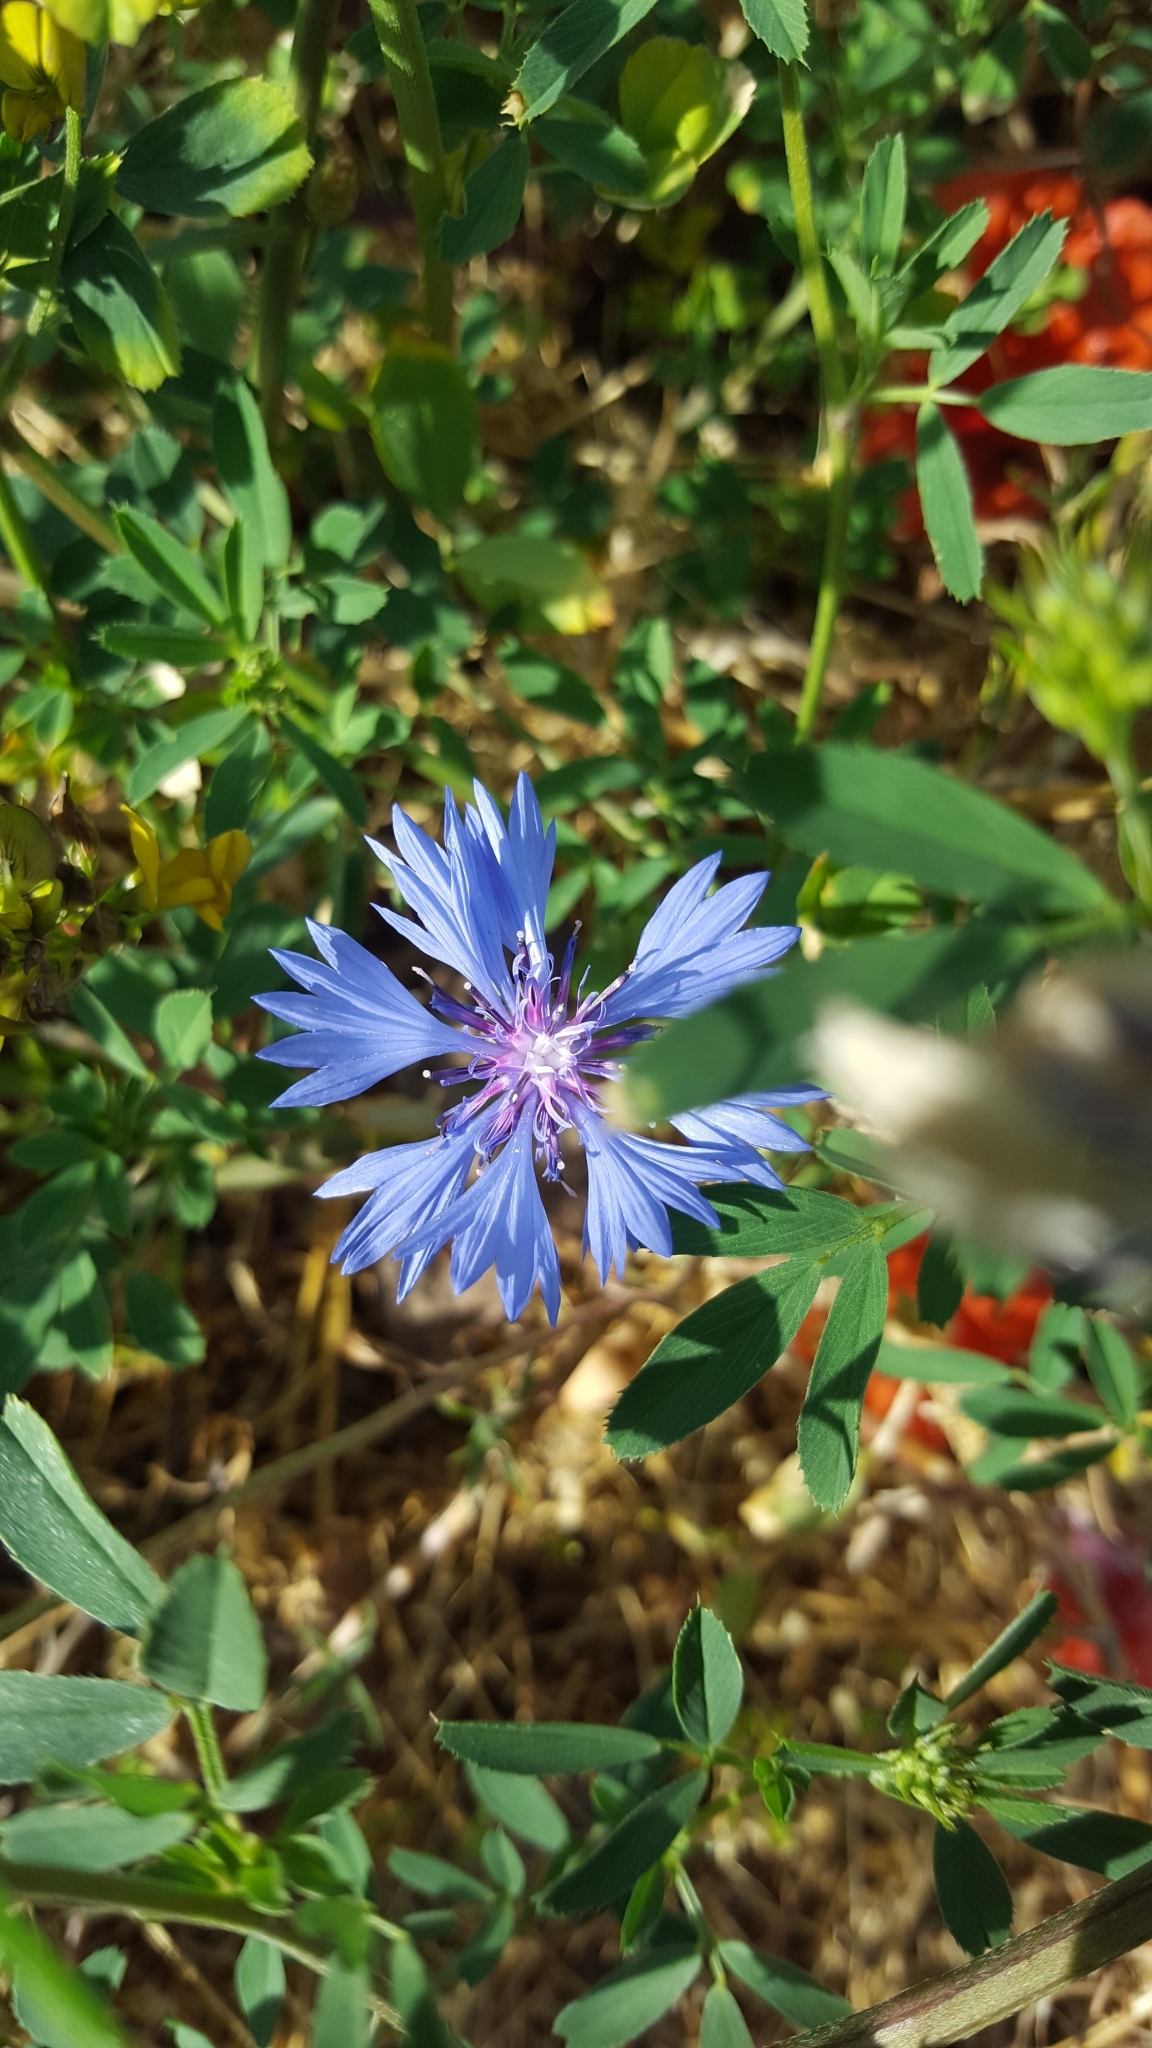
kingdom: Plantae
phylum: Tracheophyta
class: Magnoliopsida
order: Asterales
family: Asteraceae
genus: Centaurea
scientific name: Centaurea cyanus
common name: Cornflower
